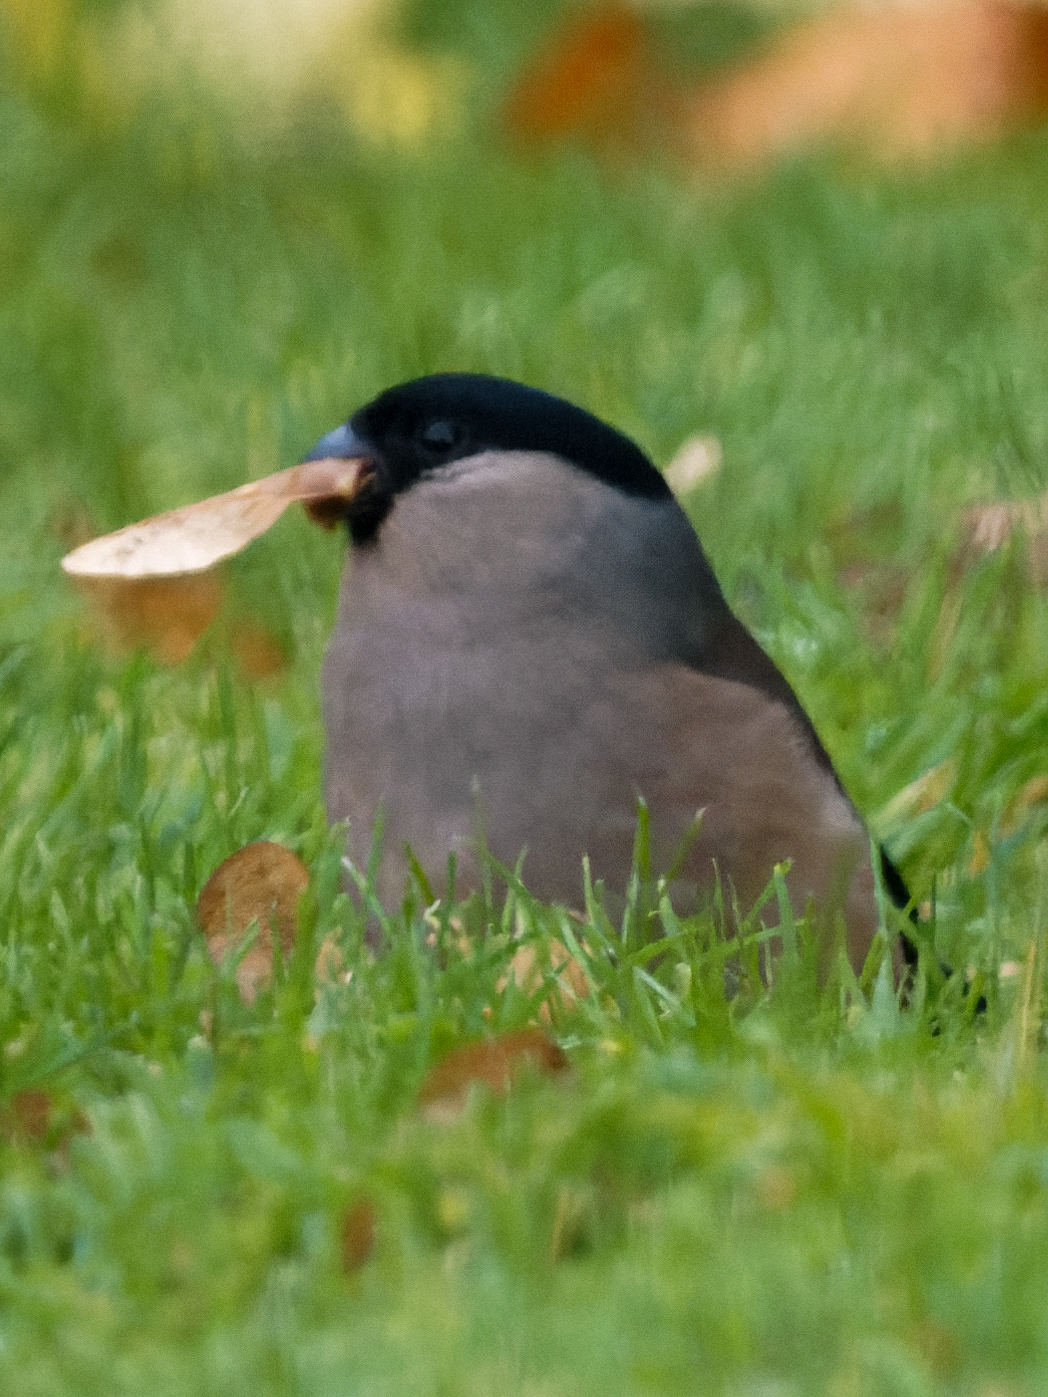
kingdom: Animalia
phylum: Chordata
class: Aves
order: Passeriformes
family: Fringillidae
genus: Pyrrhula
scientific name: Pyrrhula pyrrhula
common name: Eurasian bullfinch
